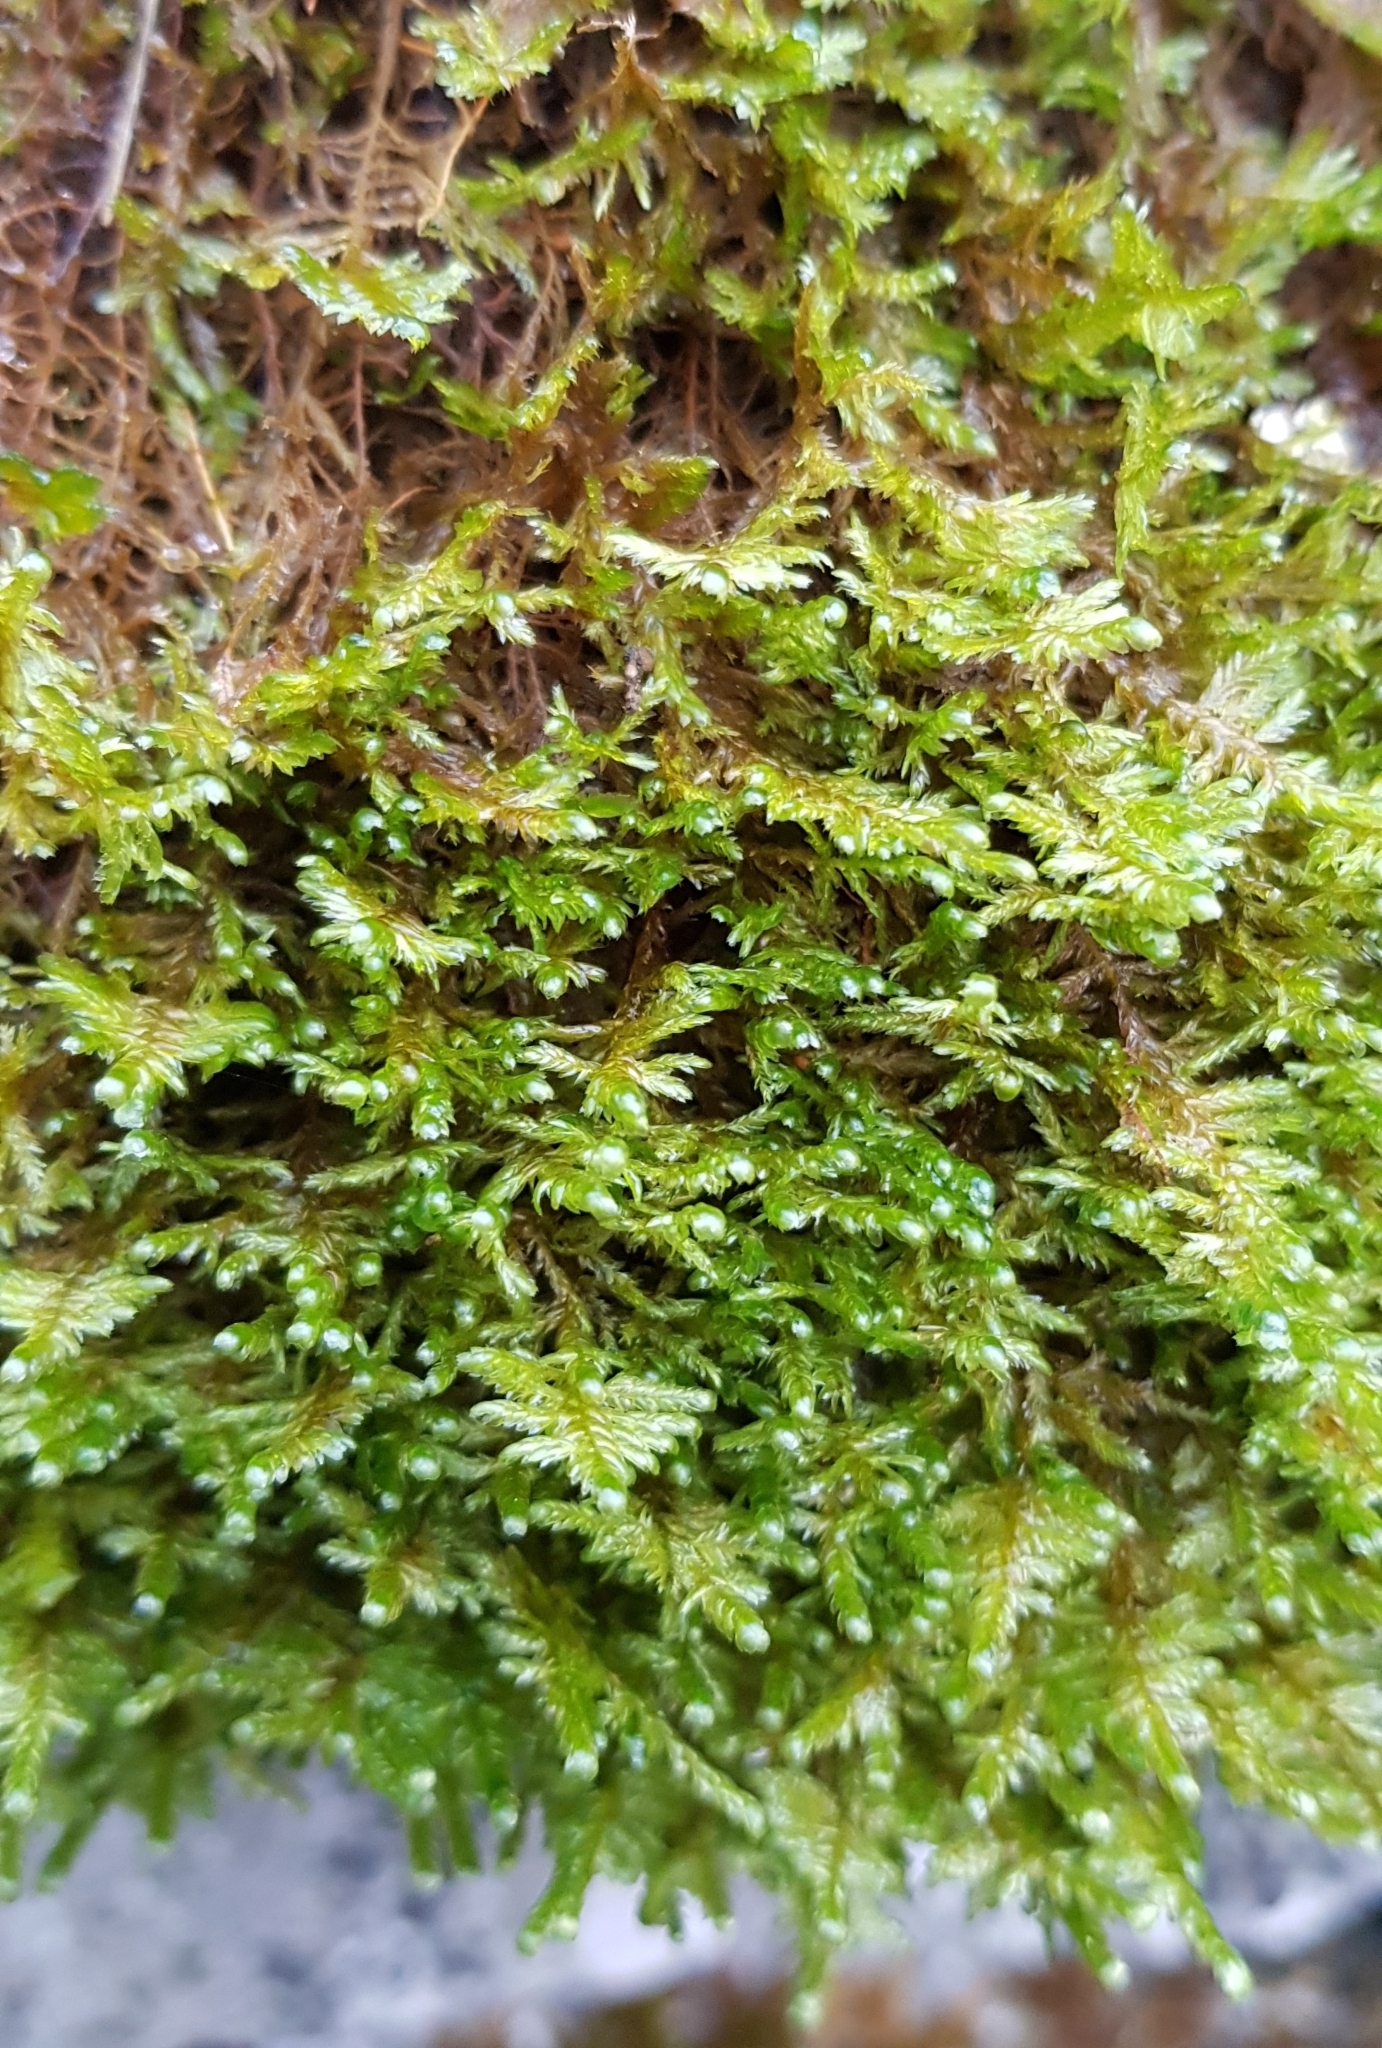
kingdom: Plantae
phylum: Bryophyta
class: Bryopsida
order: Hypnales
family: Neckeraceae
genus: Alleniella
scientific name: Alleniella complanata
